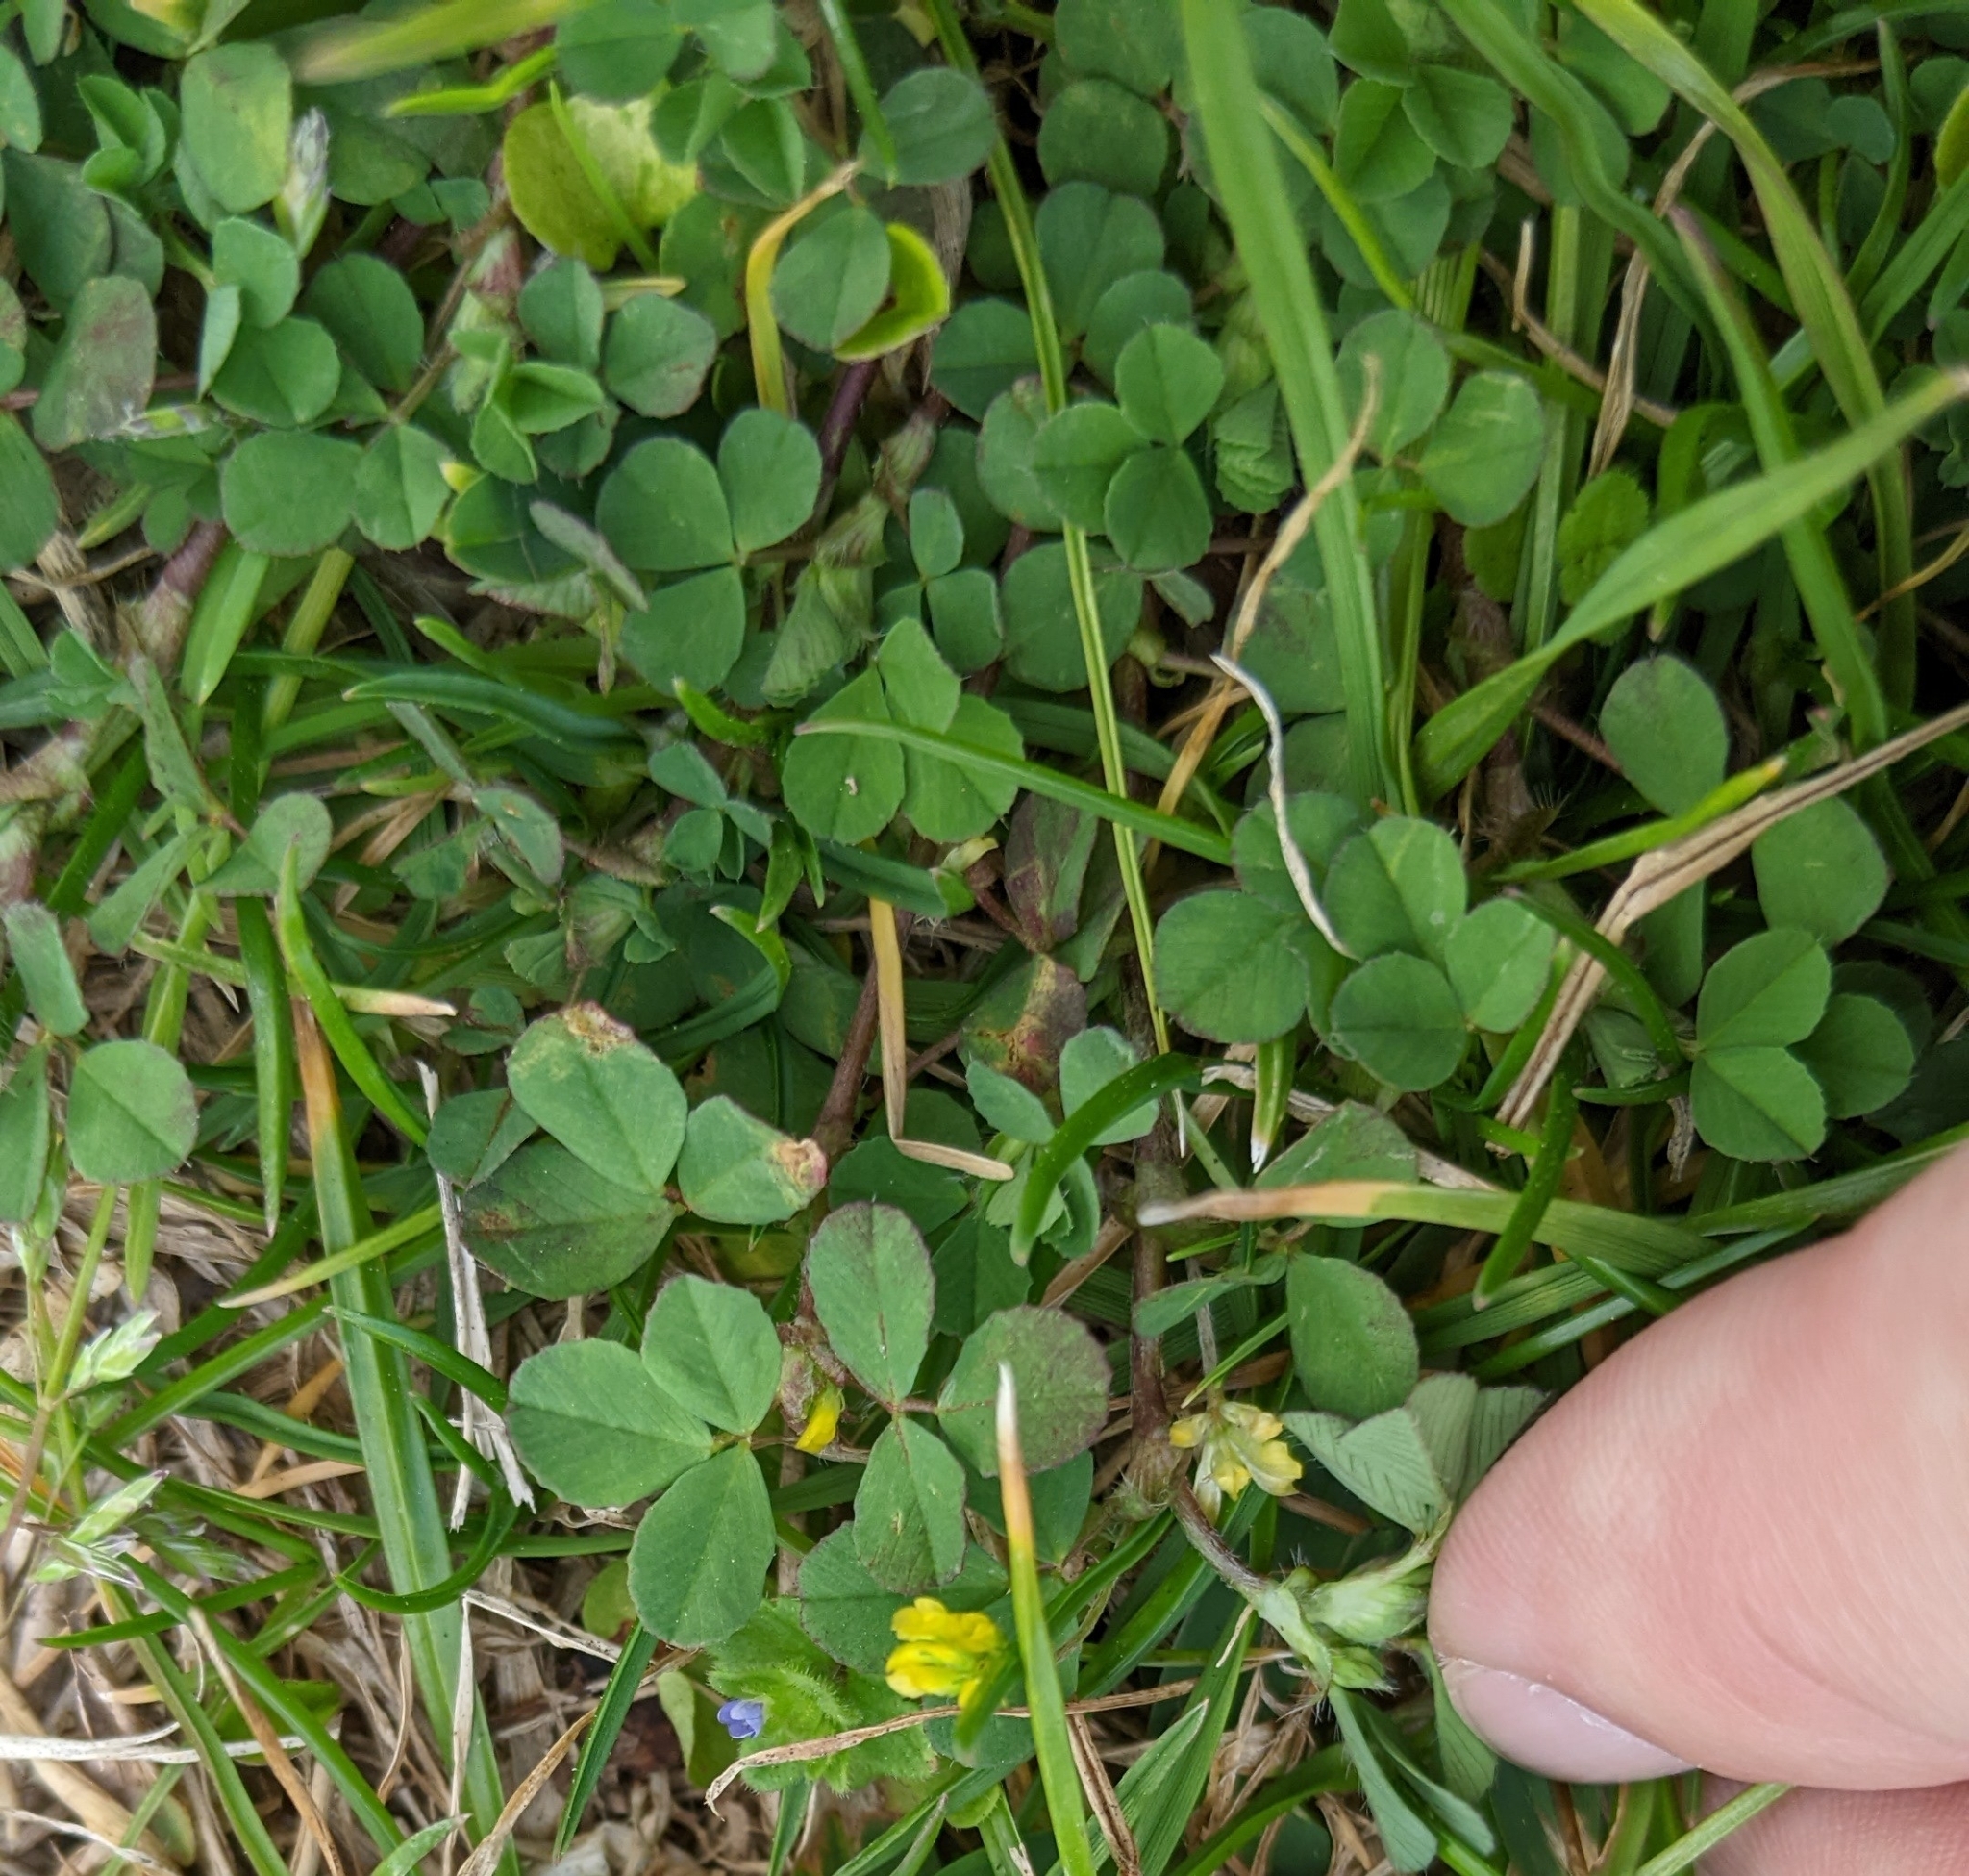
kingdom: Plantae
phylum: Tracheophyta
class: Magnoliopsida
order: Fabales
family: Fabaceae
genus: Trifolium
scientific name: Trifolium dubium
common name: Suckling clover
